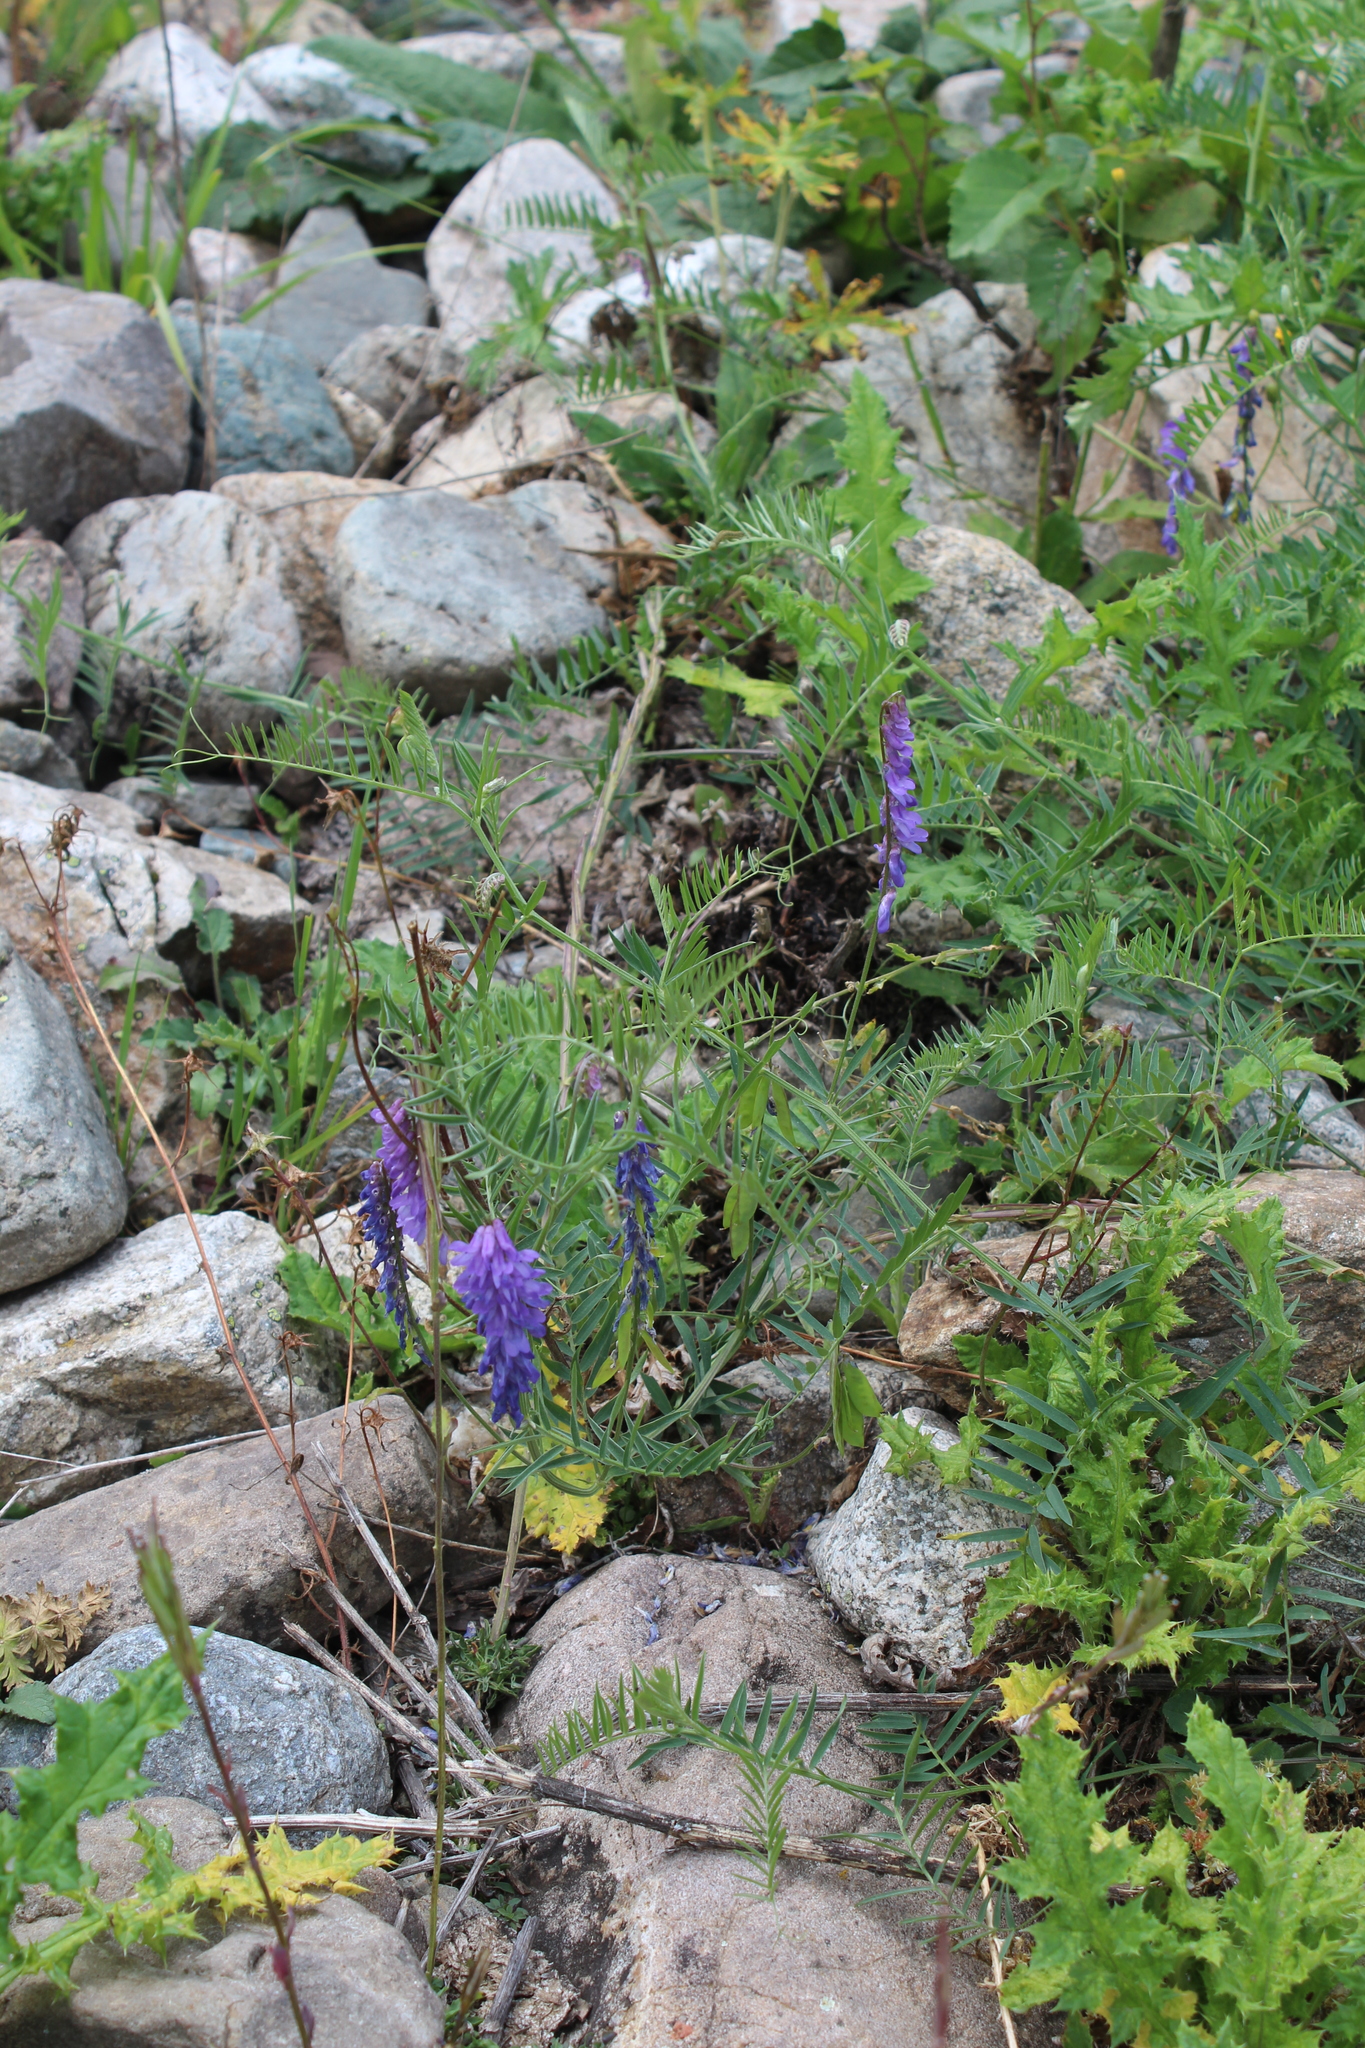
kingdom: Plantae
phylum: Tracheophyta
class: Magnoliopsida
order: Fabales
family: Fabaceae
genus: Vicia
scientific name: Vicia cracca
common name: Bird vetch
